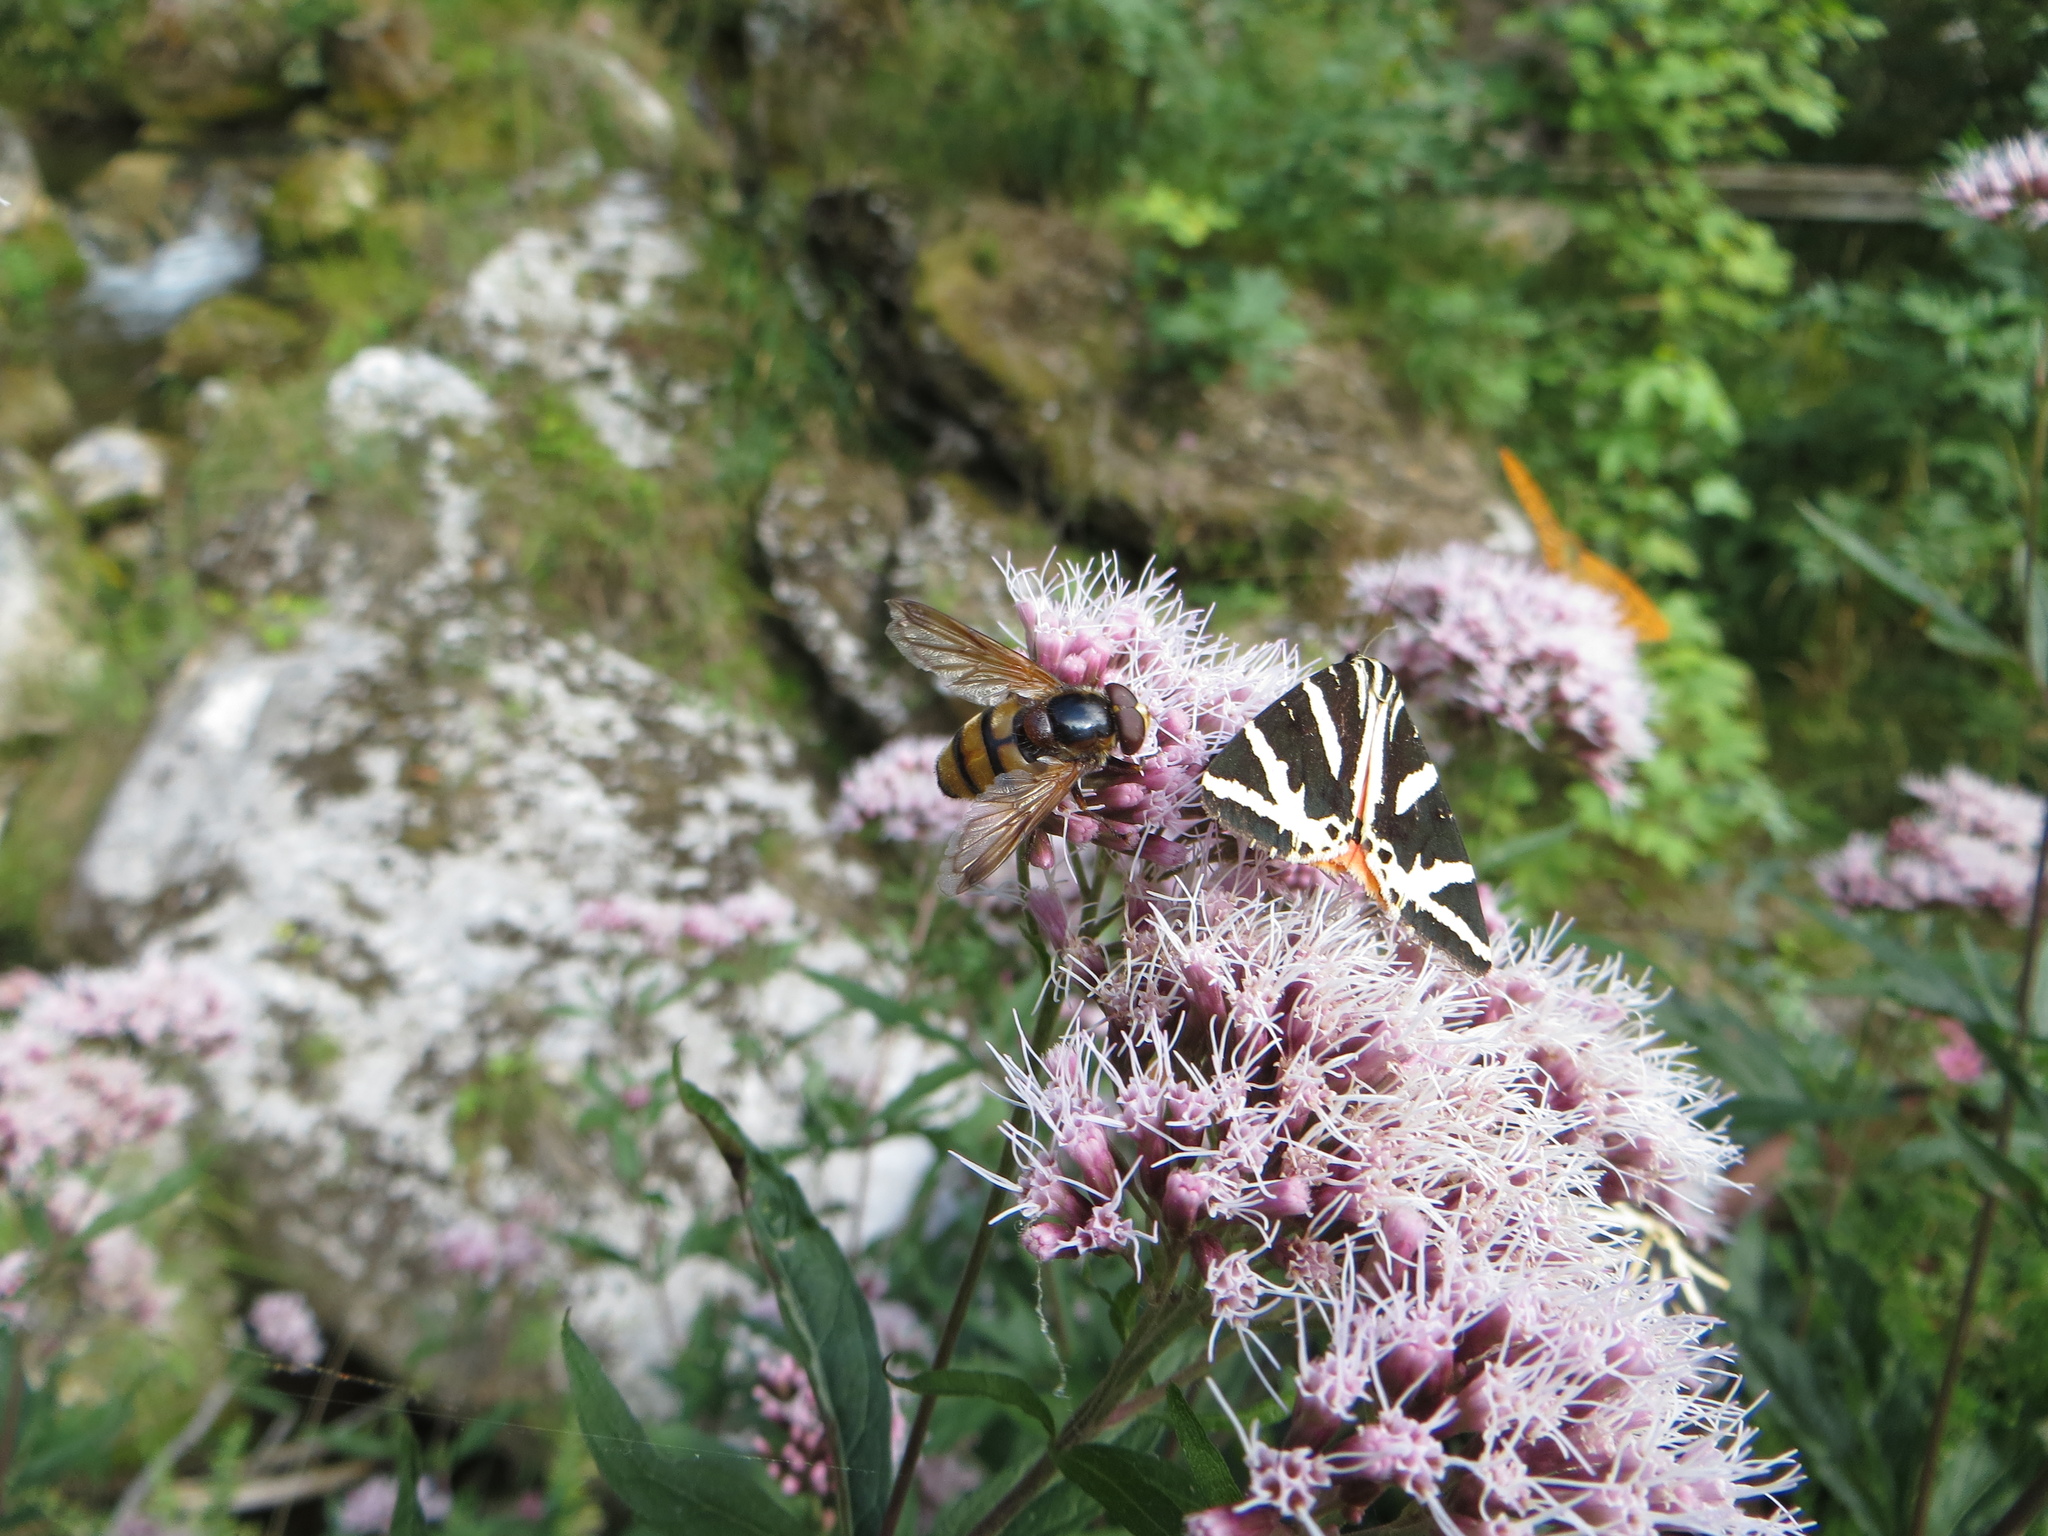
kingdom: Animalia
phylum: Arthropoda
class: Insecta
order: Diptera
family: Syrphidae
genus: Volucella
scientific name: Volucella inanis
